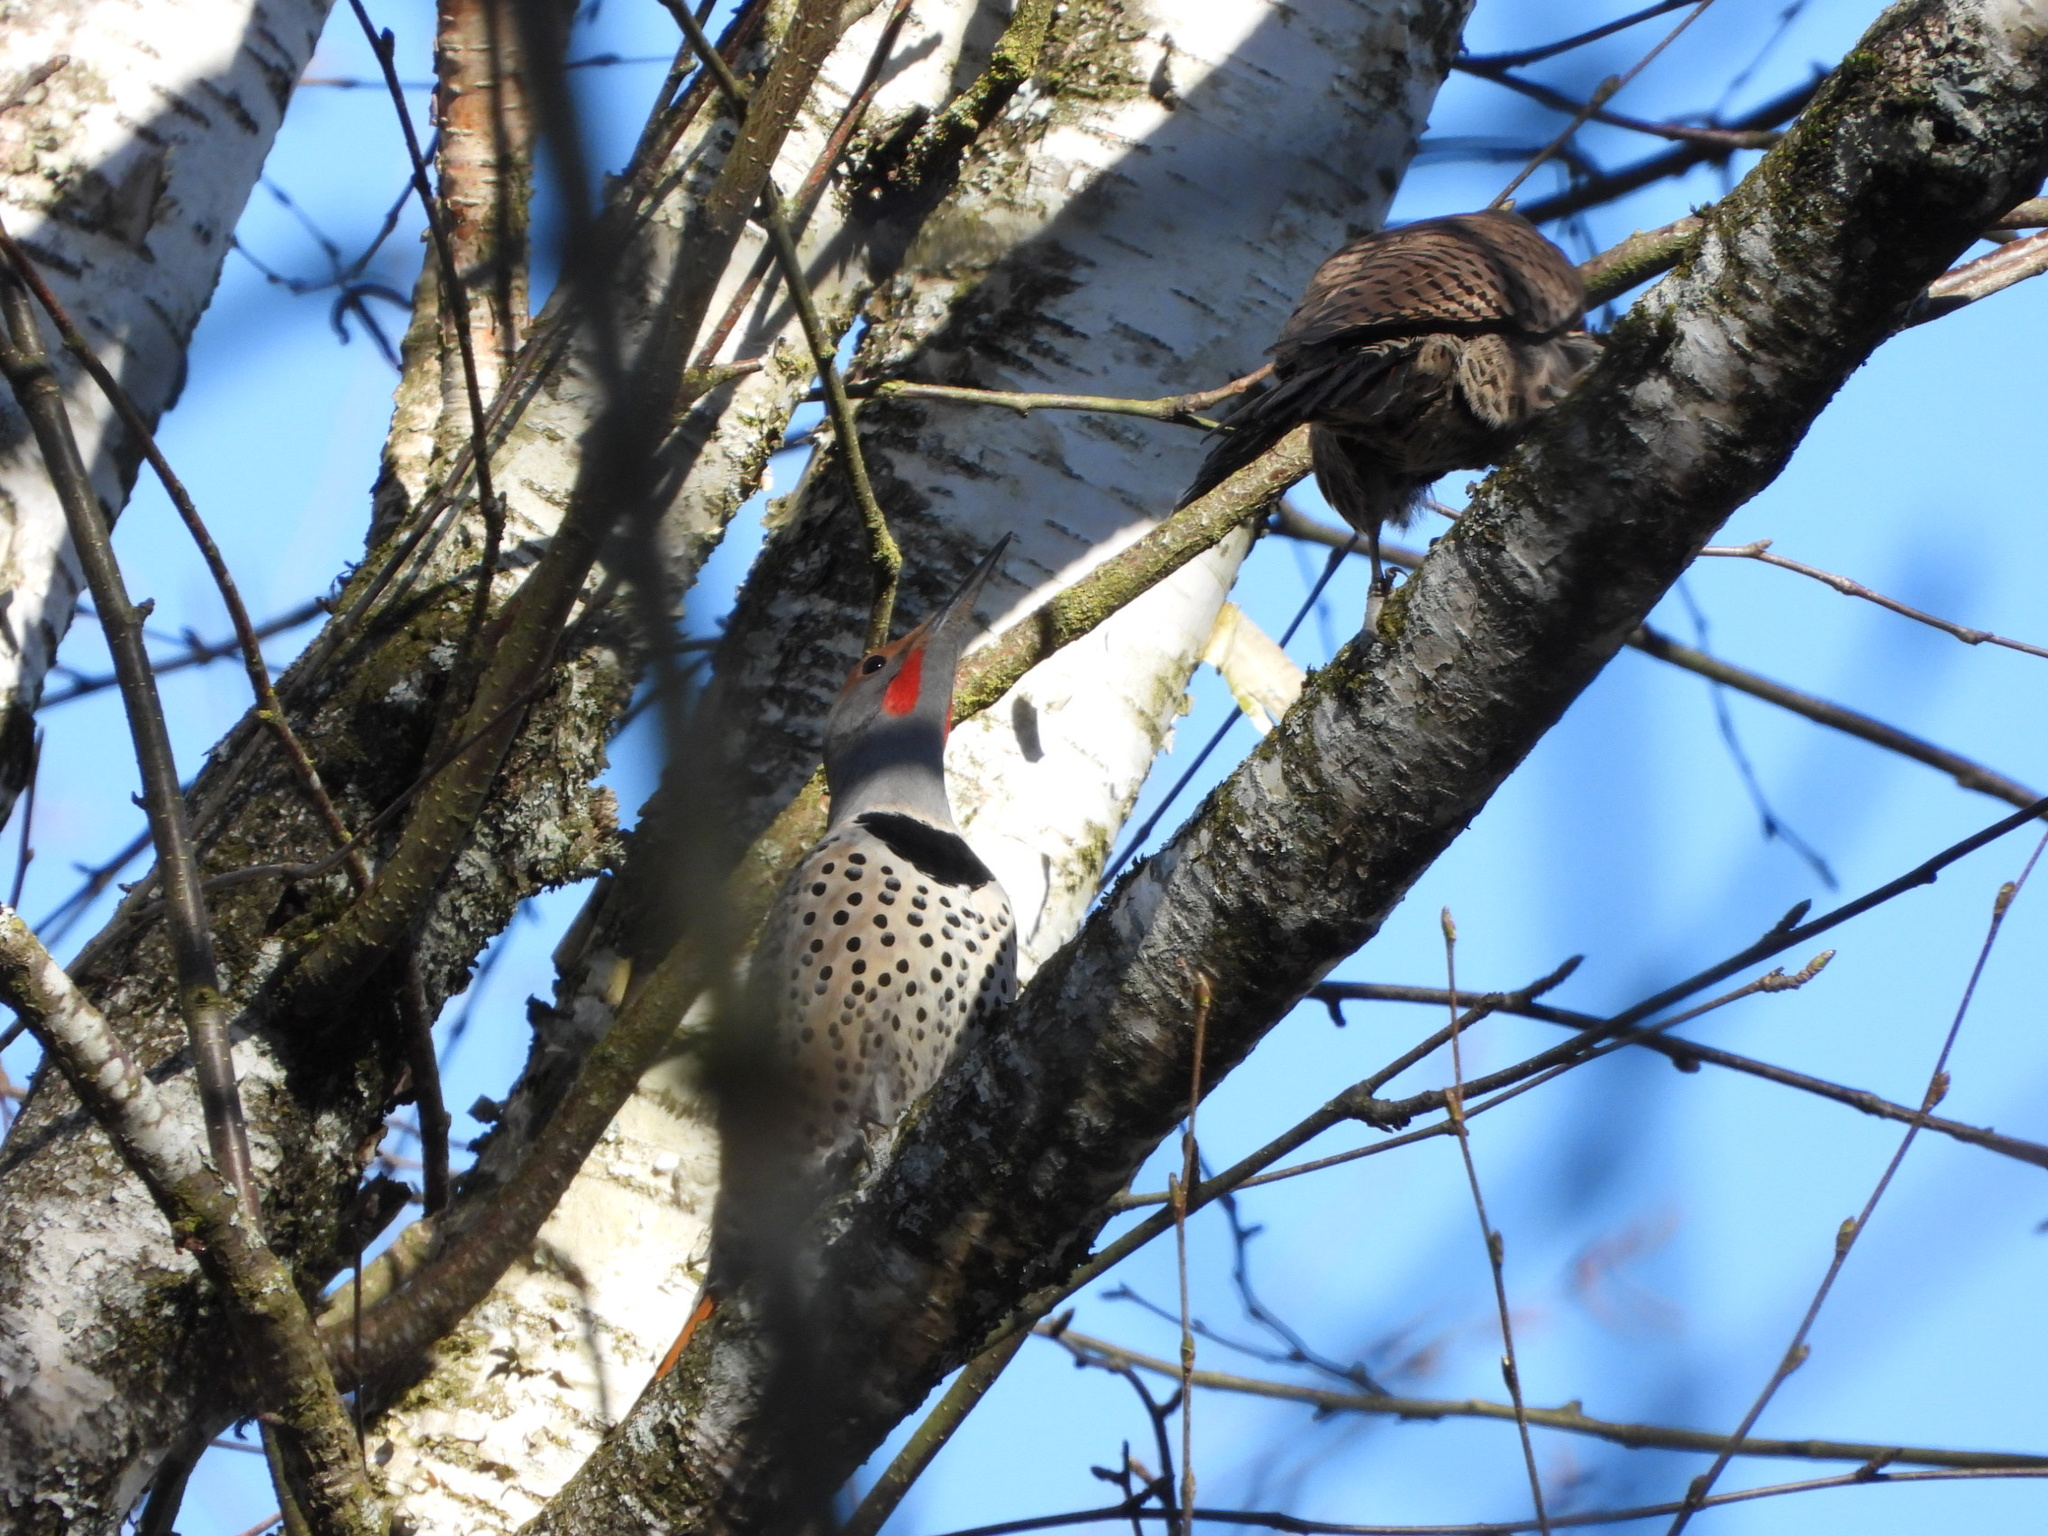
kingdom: Animalia
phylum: Chordata
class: Aves
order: Piciformes
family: Picidae
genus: Colaptes
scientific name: Colaptes auratus
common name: Northern flicker
